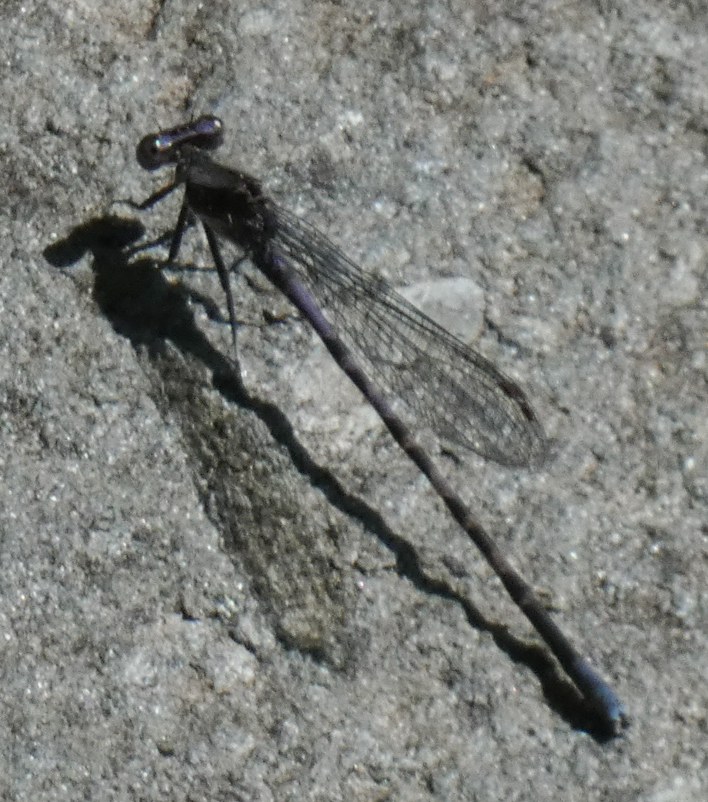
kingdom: Animalia
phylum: Arthropoda
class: Insecta
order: Odonata
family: Coenagrionidae
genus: Argia
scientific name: Argia immunda
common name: Kiowa dancer
